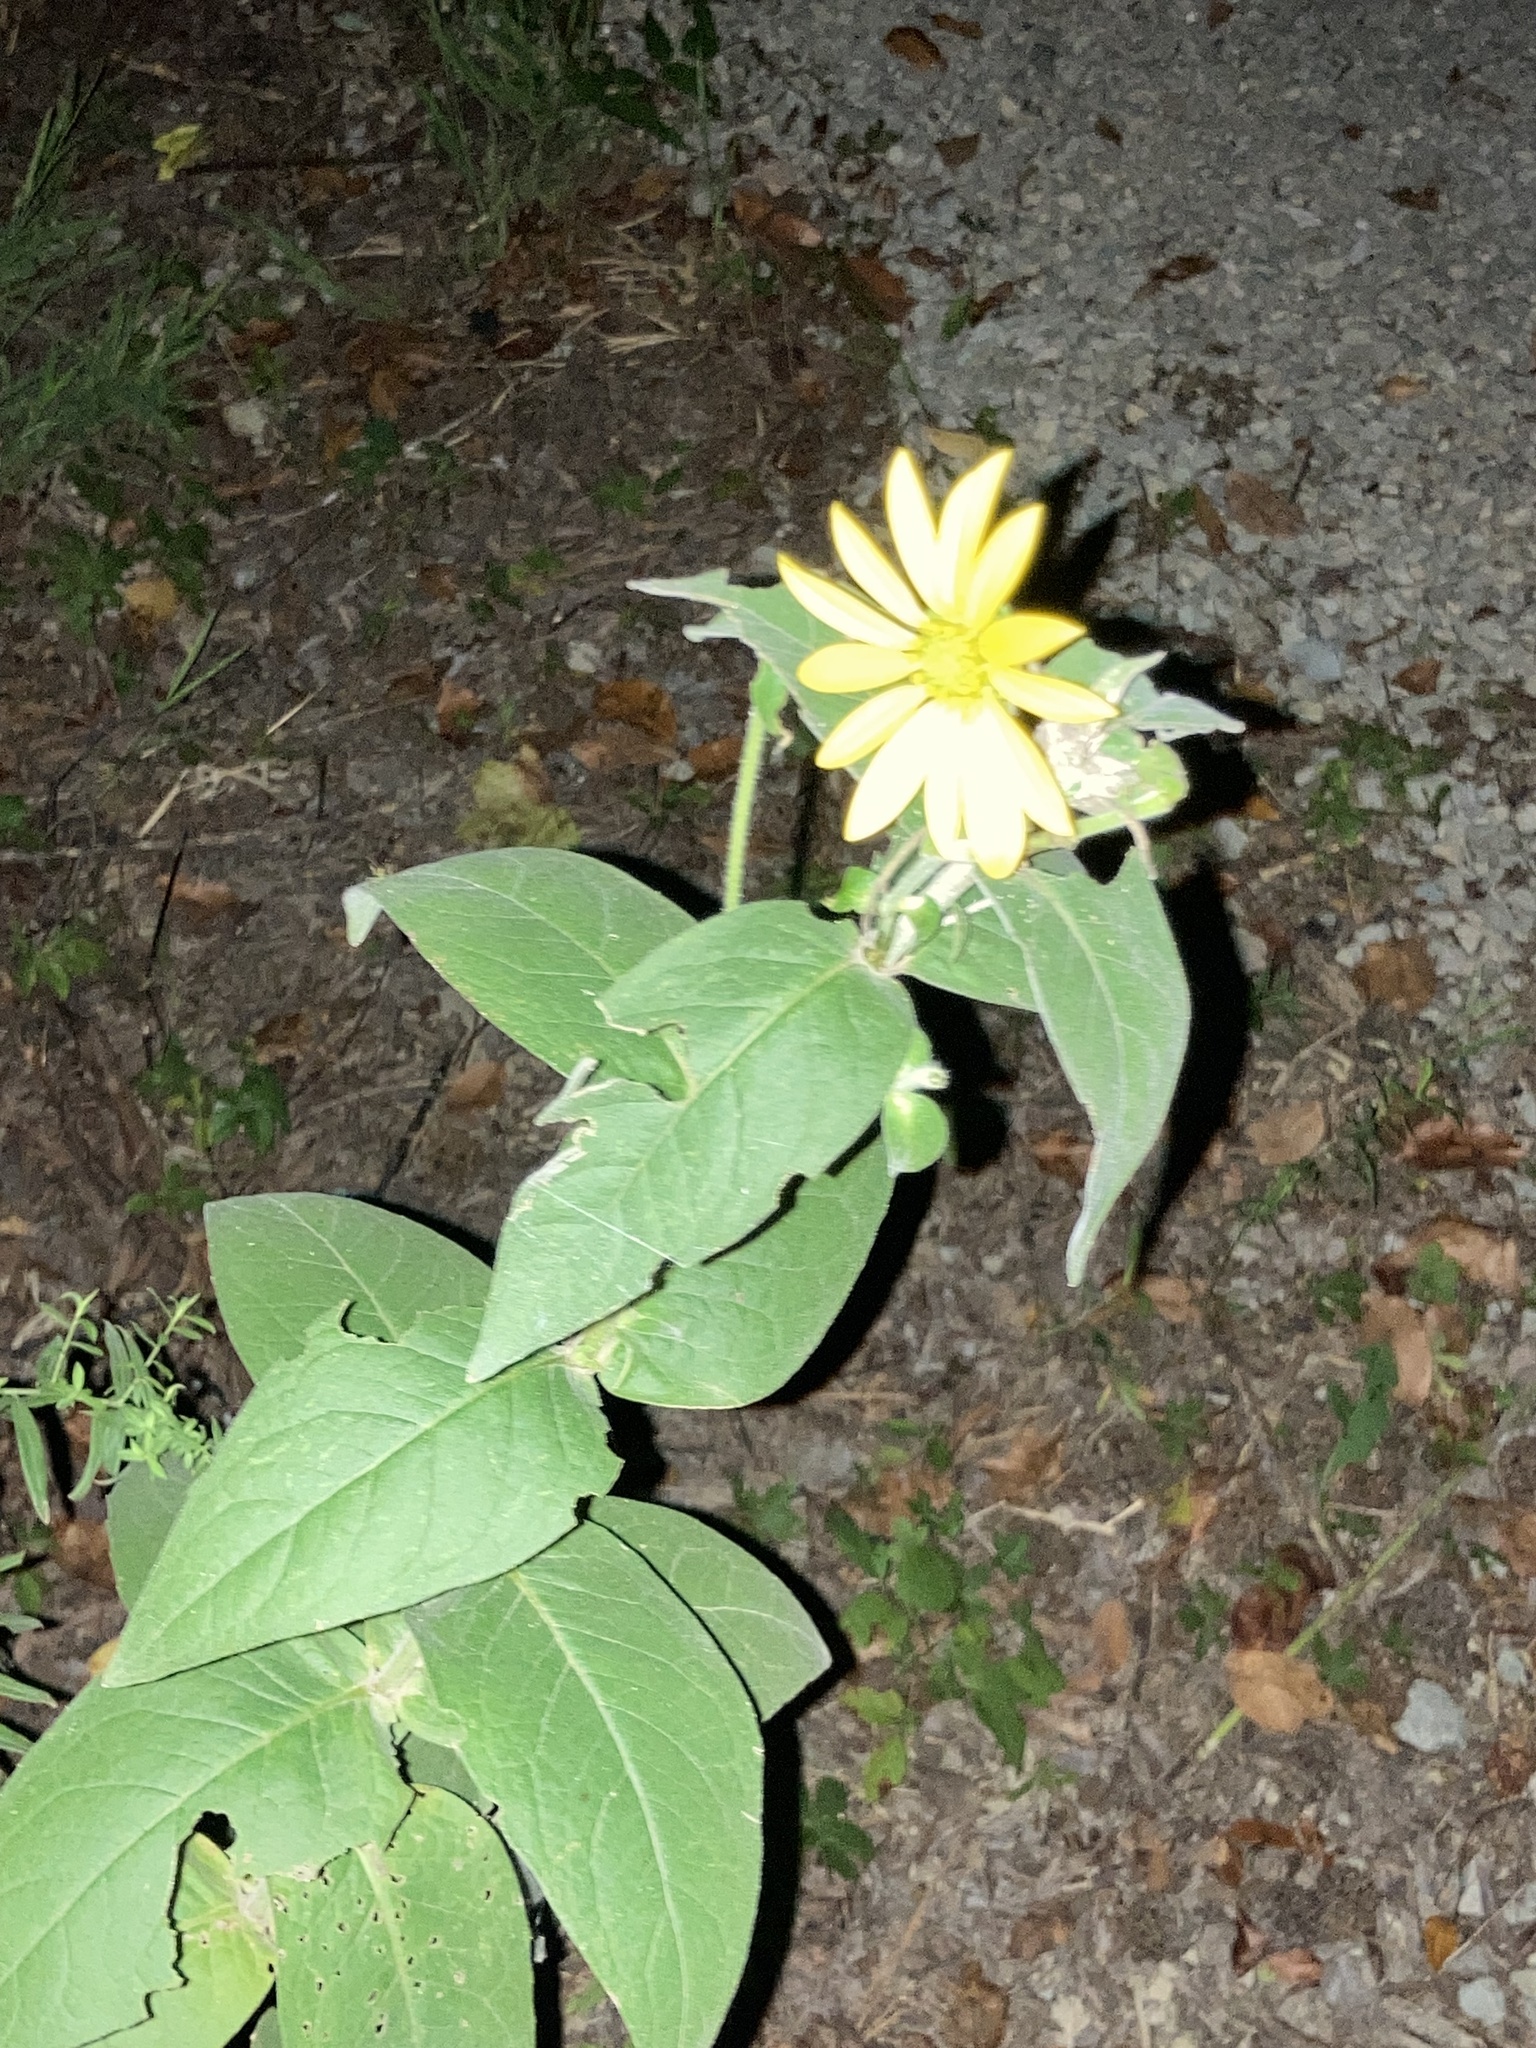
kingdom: Plantae
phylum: Tracheophyta
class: Magnoliopsida
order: Asterales
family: Asteraceae
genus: Silphium
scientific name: Silphium integrifolium
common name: Whole-leaf rosinweed
